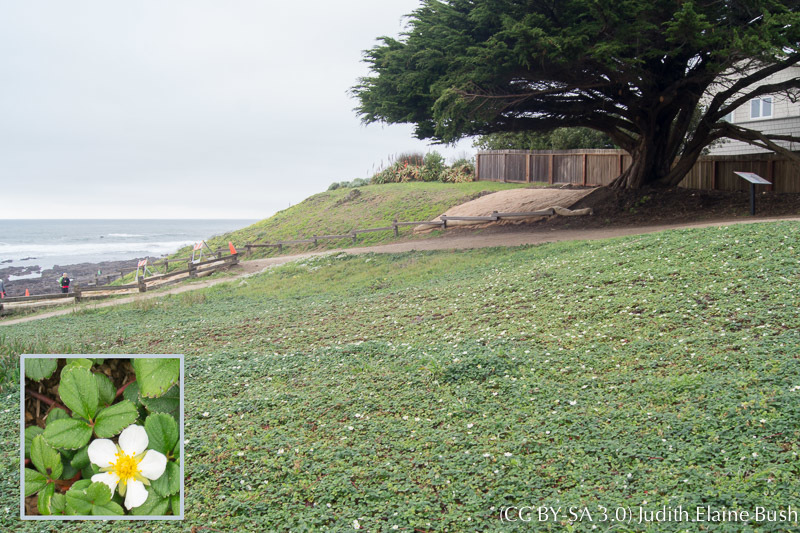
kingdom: Plantae
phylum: Tracheophyta
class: Magnoliopsida
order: Rosales
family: Rosaceae
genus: Fragaria
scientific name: Fragaria chiloensis
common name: Beach strawberry
